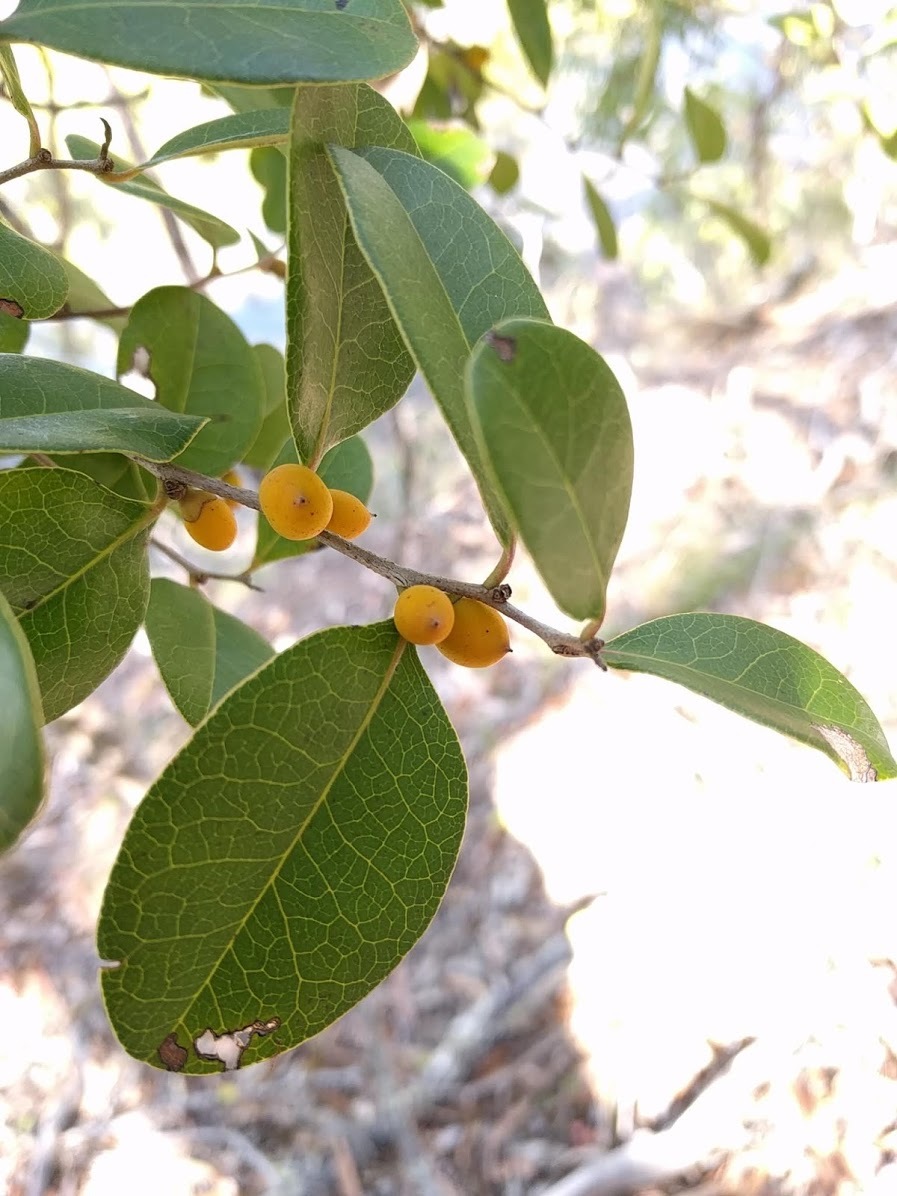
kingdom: Plantae
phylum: Tracheophyta
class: Magnoliopsida
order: Ericales
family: Ebenaceae
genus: Diospyros
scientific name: Diospyros geminata
